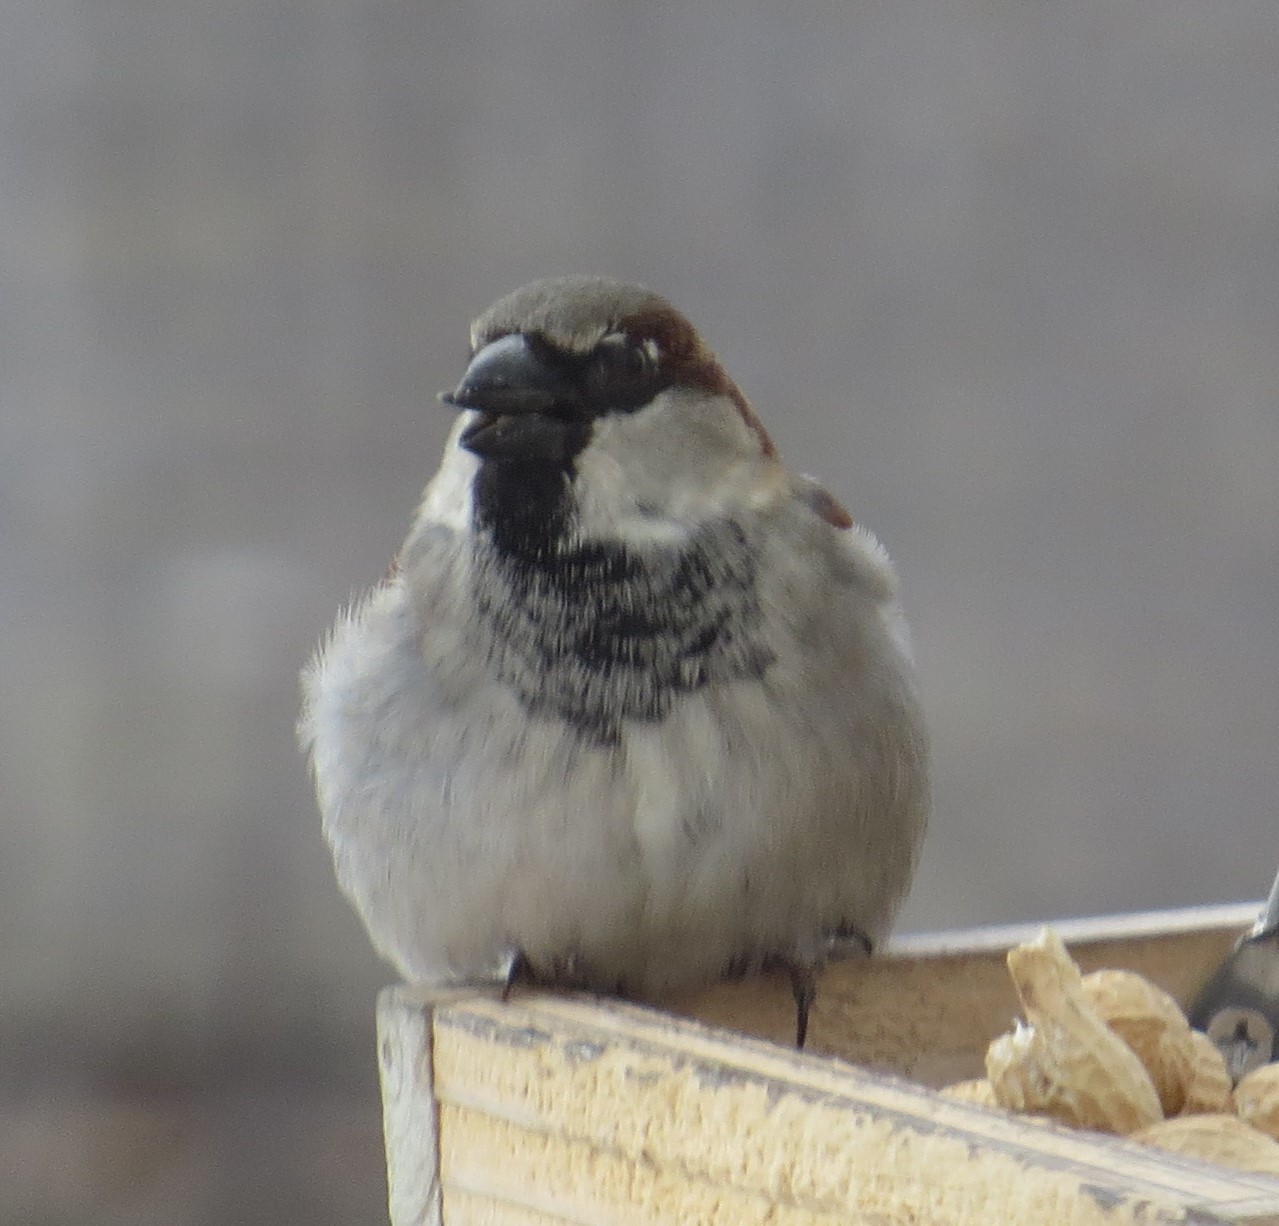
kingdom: Animalia
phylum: Chordata
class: Aves
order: Passeriformes
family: Passeridae
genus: Passer
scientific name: Passer domesticus
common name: House sparrow
